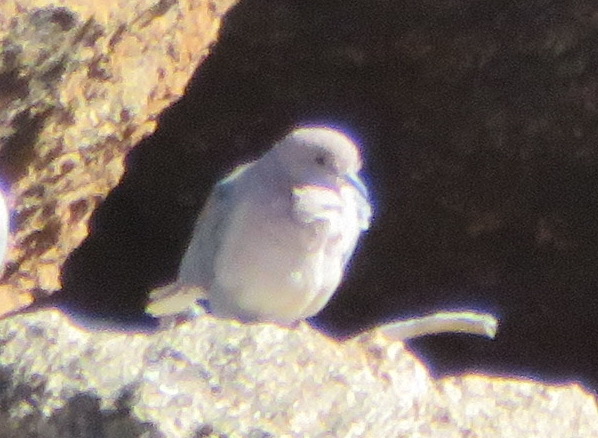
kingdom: Animalia
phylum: Chordata
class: Aves
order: Columbiformes
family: Columbidae
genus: Spilopelia
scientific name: Spilopelia senegalensis
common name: Laughing dove
